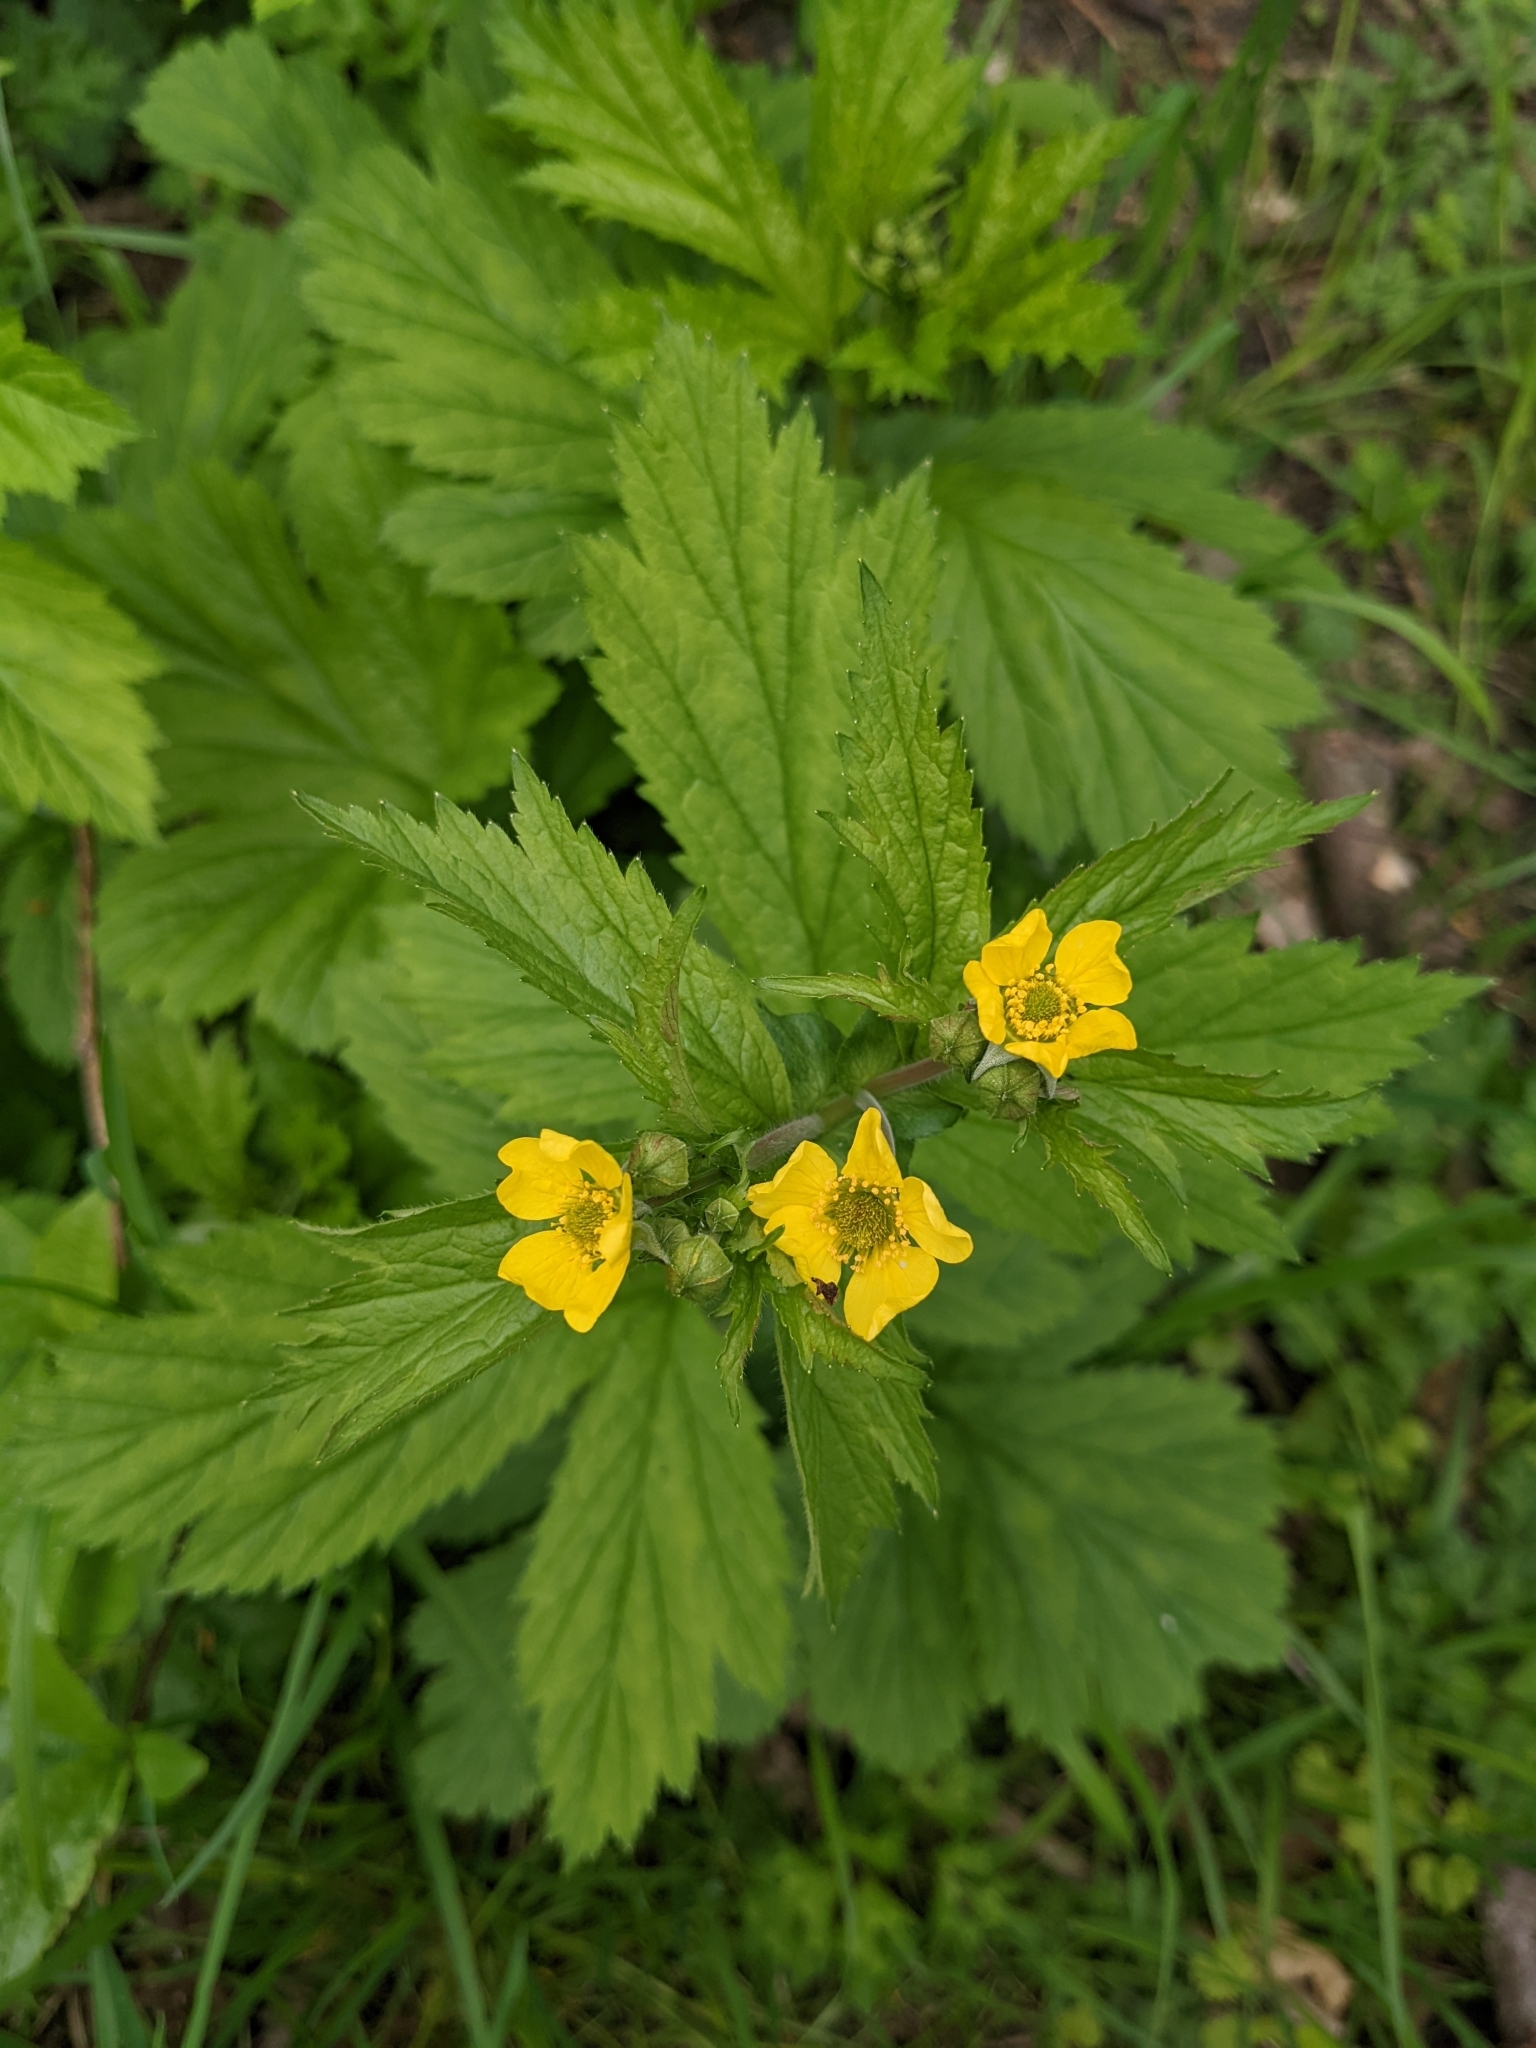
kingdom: Plantae
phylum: Tracheophyta
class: Magnoliopsida
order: Rosales
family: Rosaceae
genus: Geum
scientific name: Geum macrophyllum
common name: Large-leaved avens
